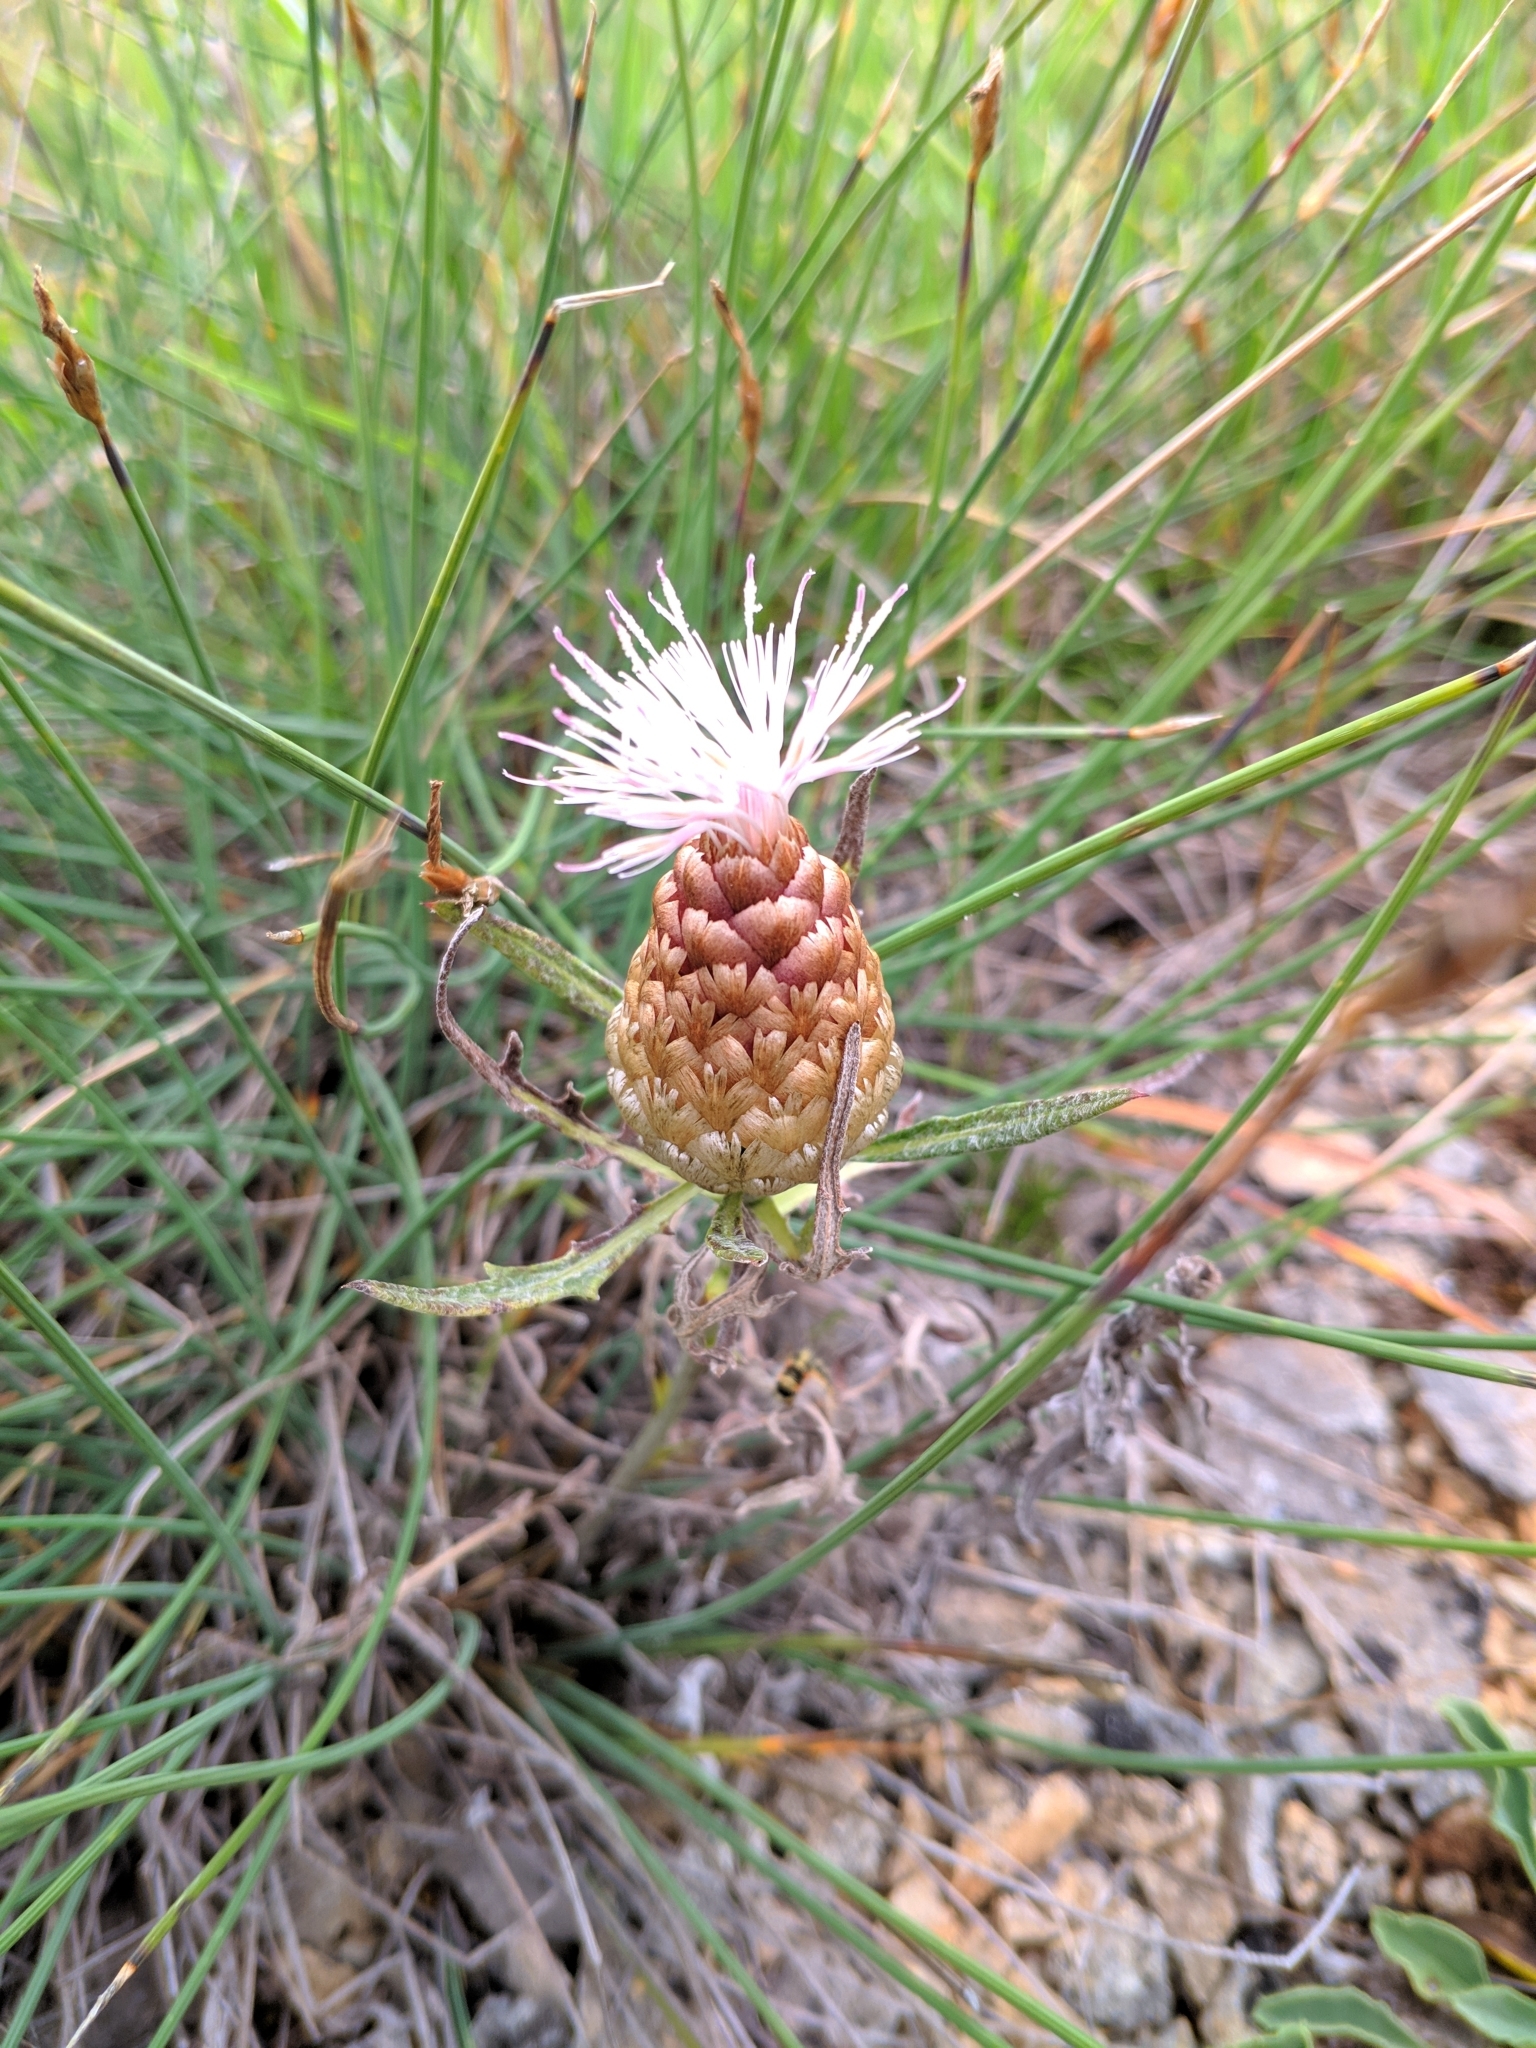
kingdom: Plantae
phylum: Tracheophyta
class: Magnoliopsida
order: Asterales
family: Asteraceae
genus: Leuzea
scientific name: Leuzea conifera
